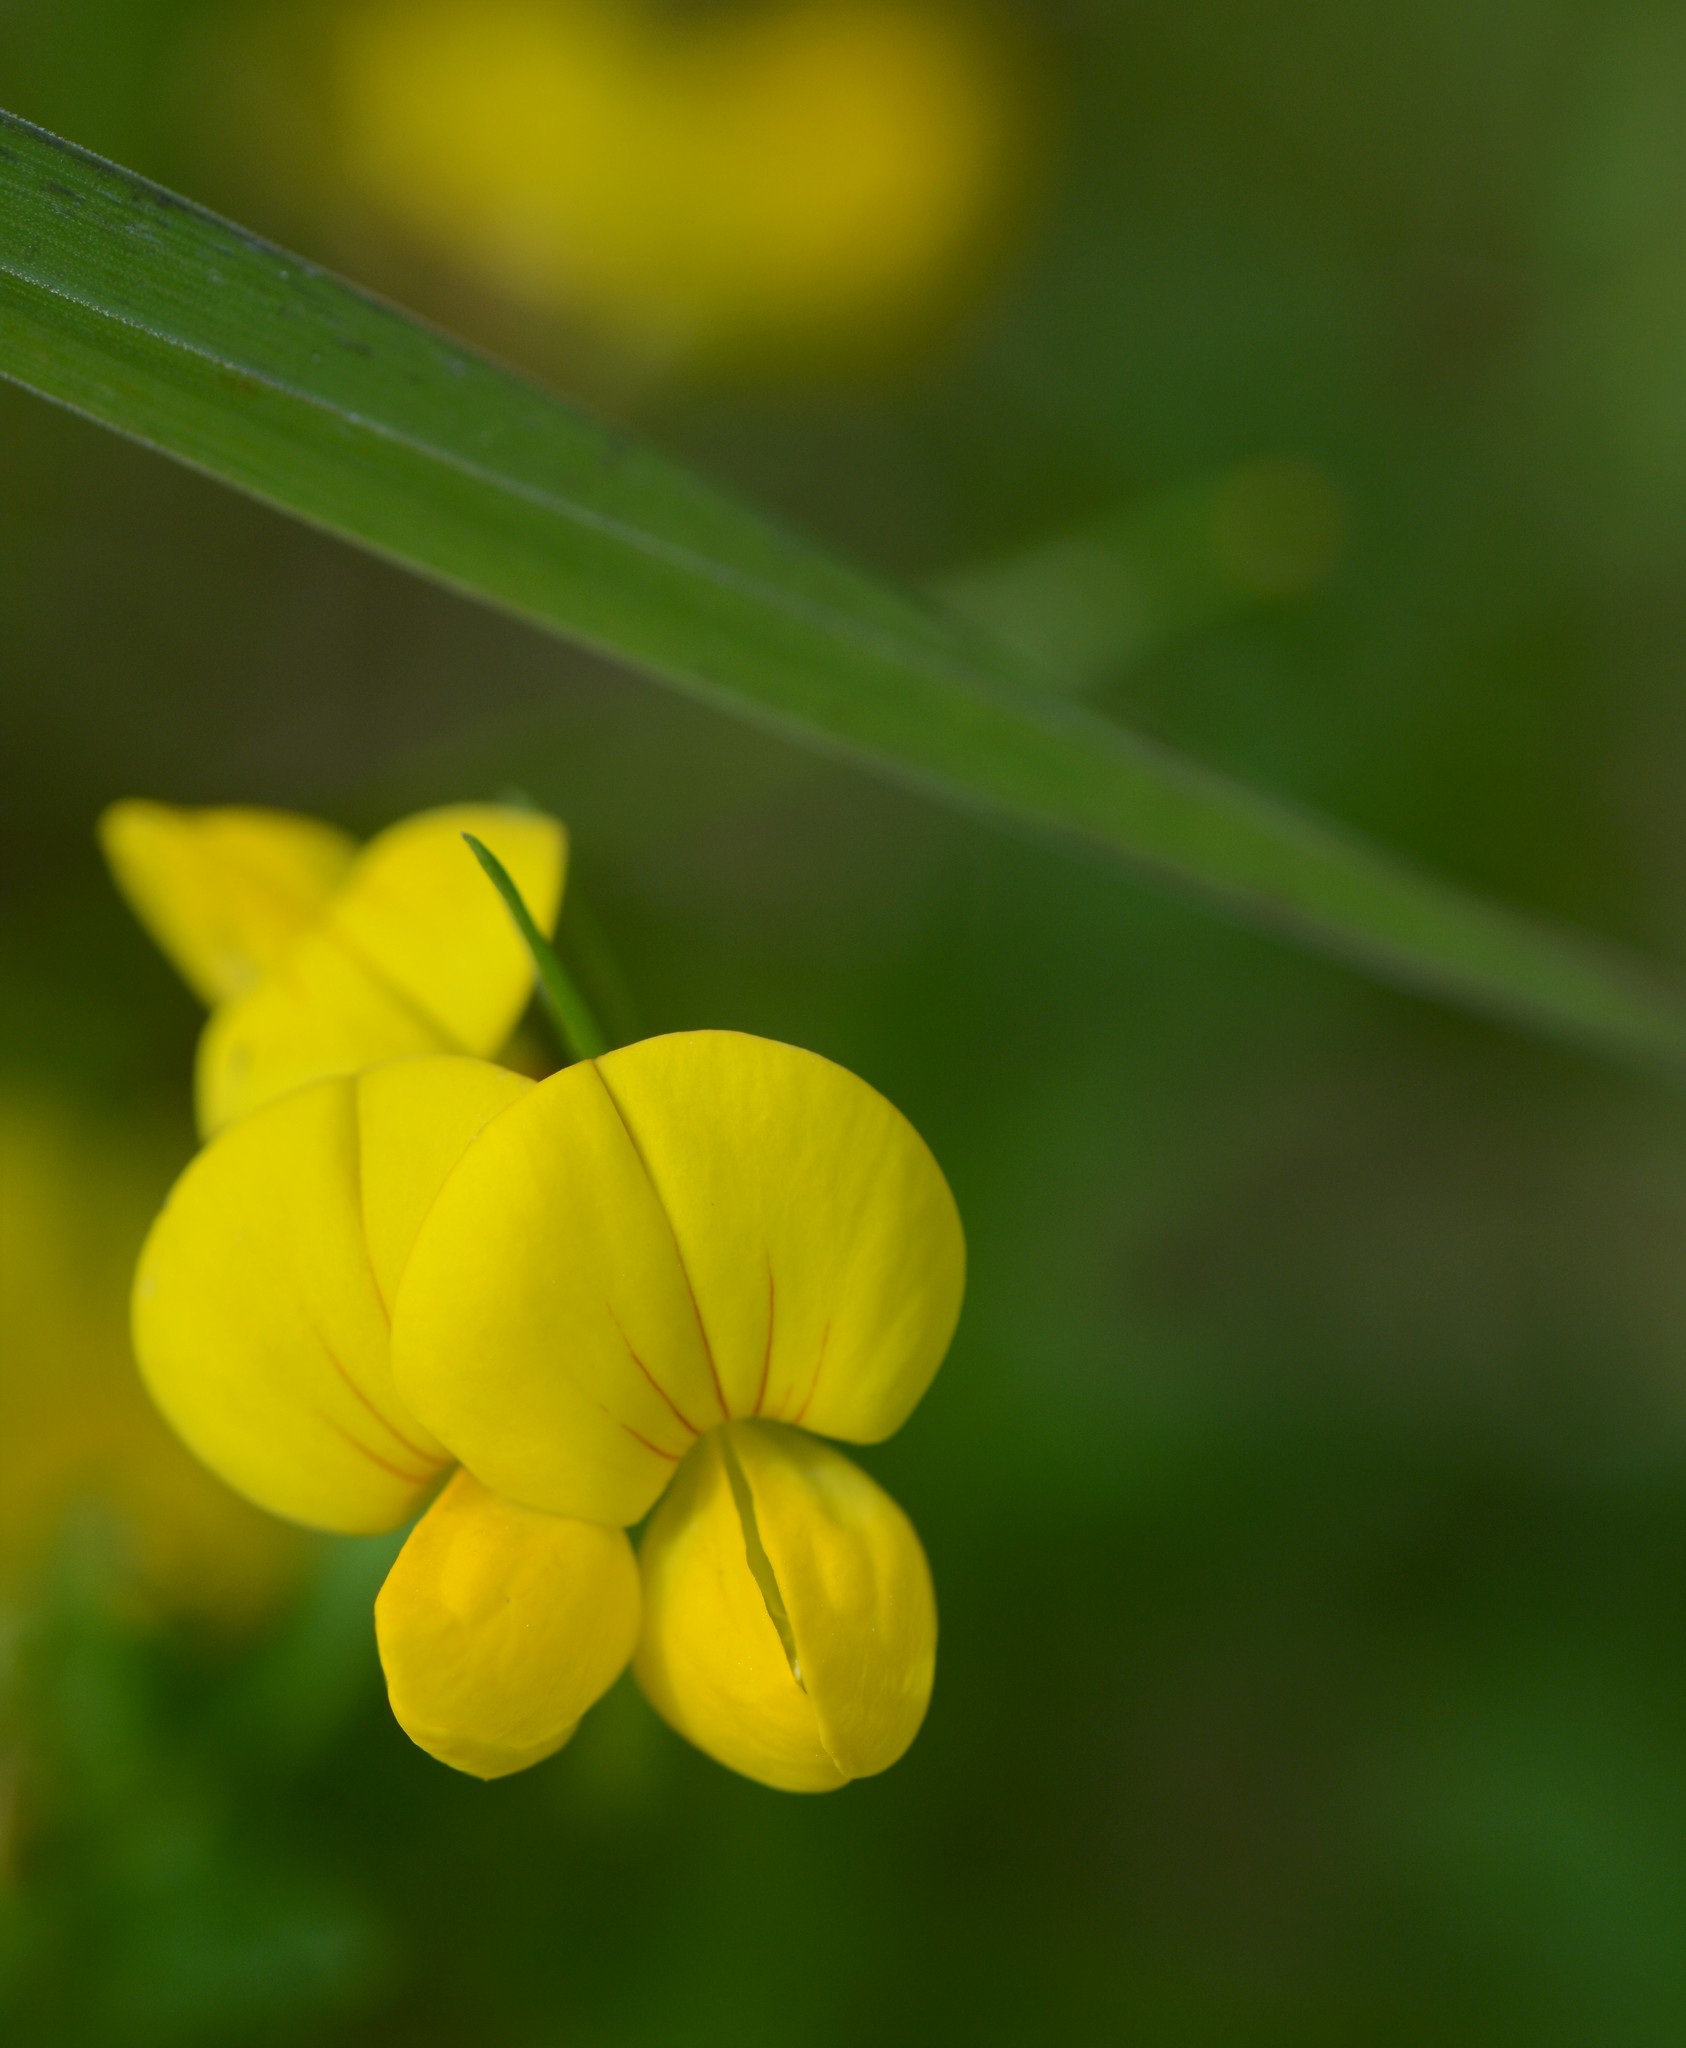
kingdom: Plantae
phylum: Tracheophyta
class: Magnoliopsida
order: Fabales
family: Fabaceae
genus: Lotus
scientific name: Lotus corniculatus
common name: Common bird's-foot-trefoil
